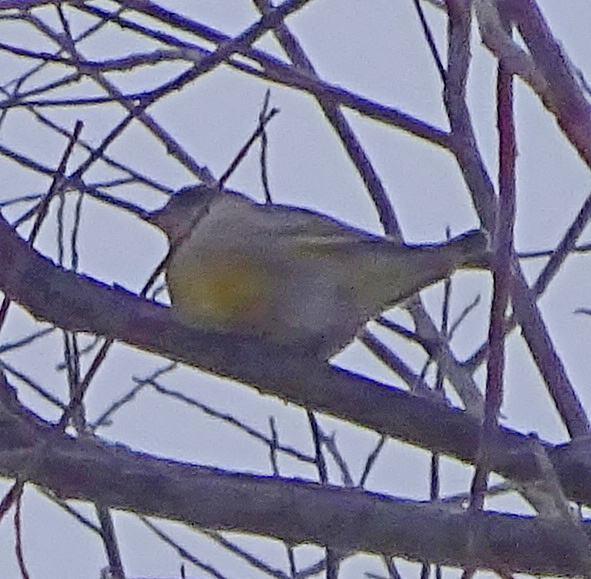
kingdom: Plantae
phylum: Tracheophyta
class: Liliopsida
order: Poales
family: Poaceae
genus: Chloris
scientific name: Chloris chloris
